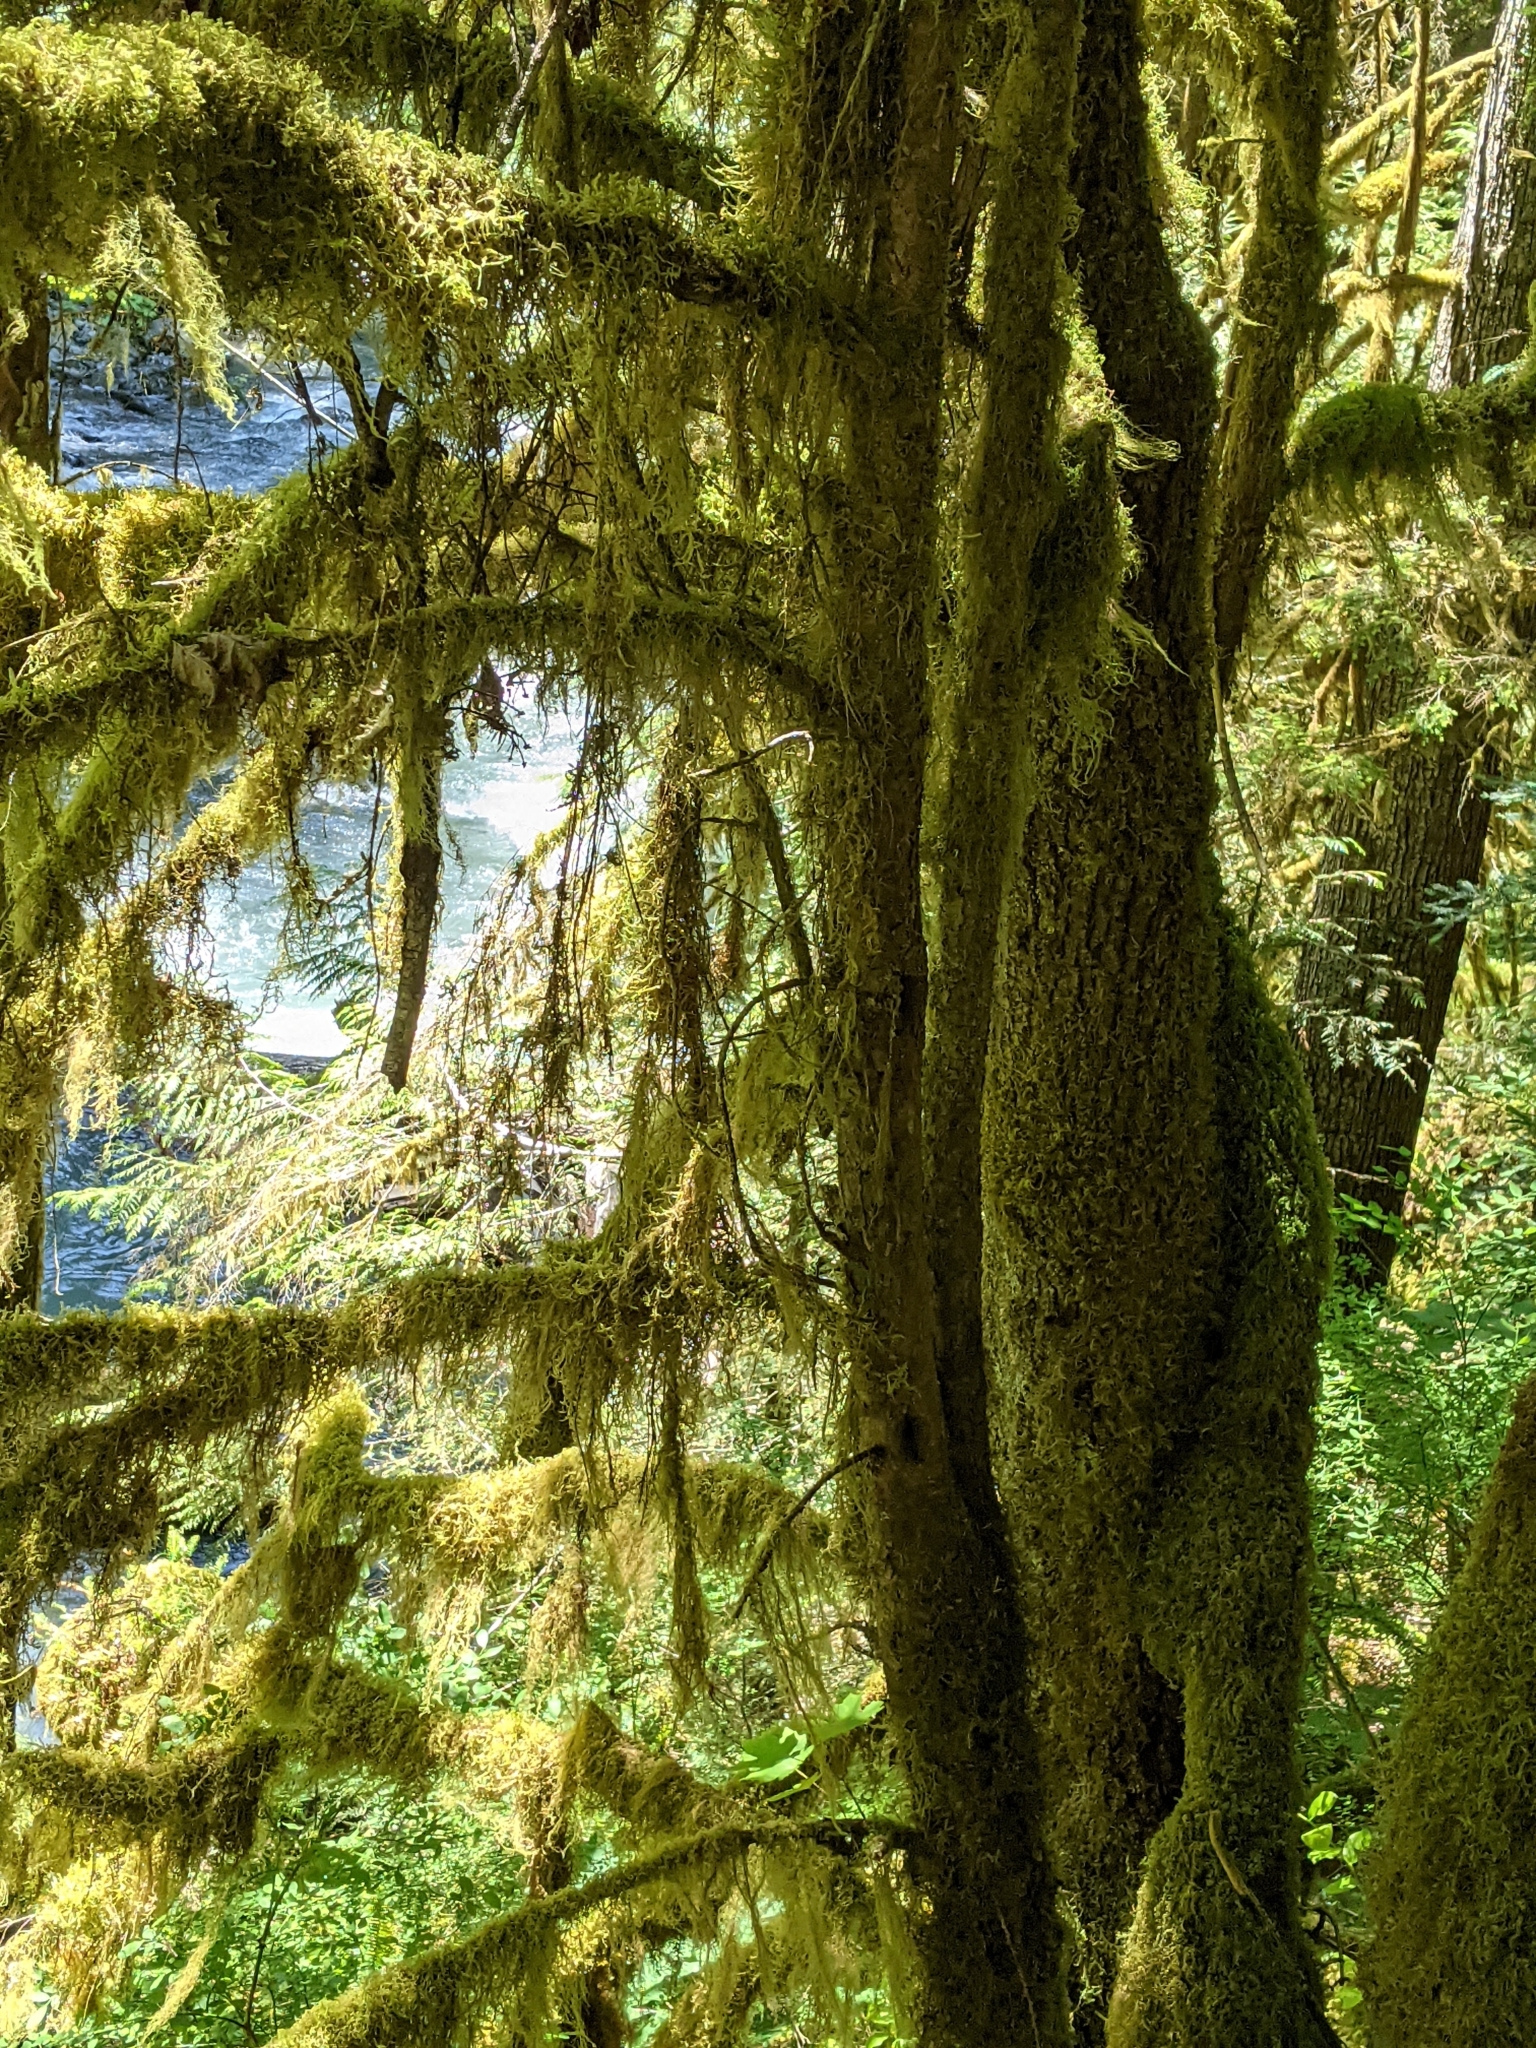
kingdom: Plantae
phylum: Tracheophyta
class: Pinopsida
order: Pinales
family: Taxaceae
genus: Taxus
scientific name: Taxus brevifolia
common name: Pacific yew
